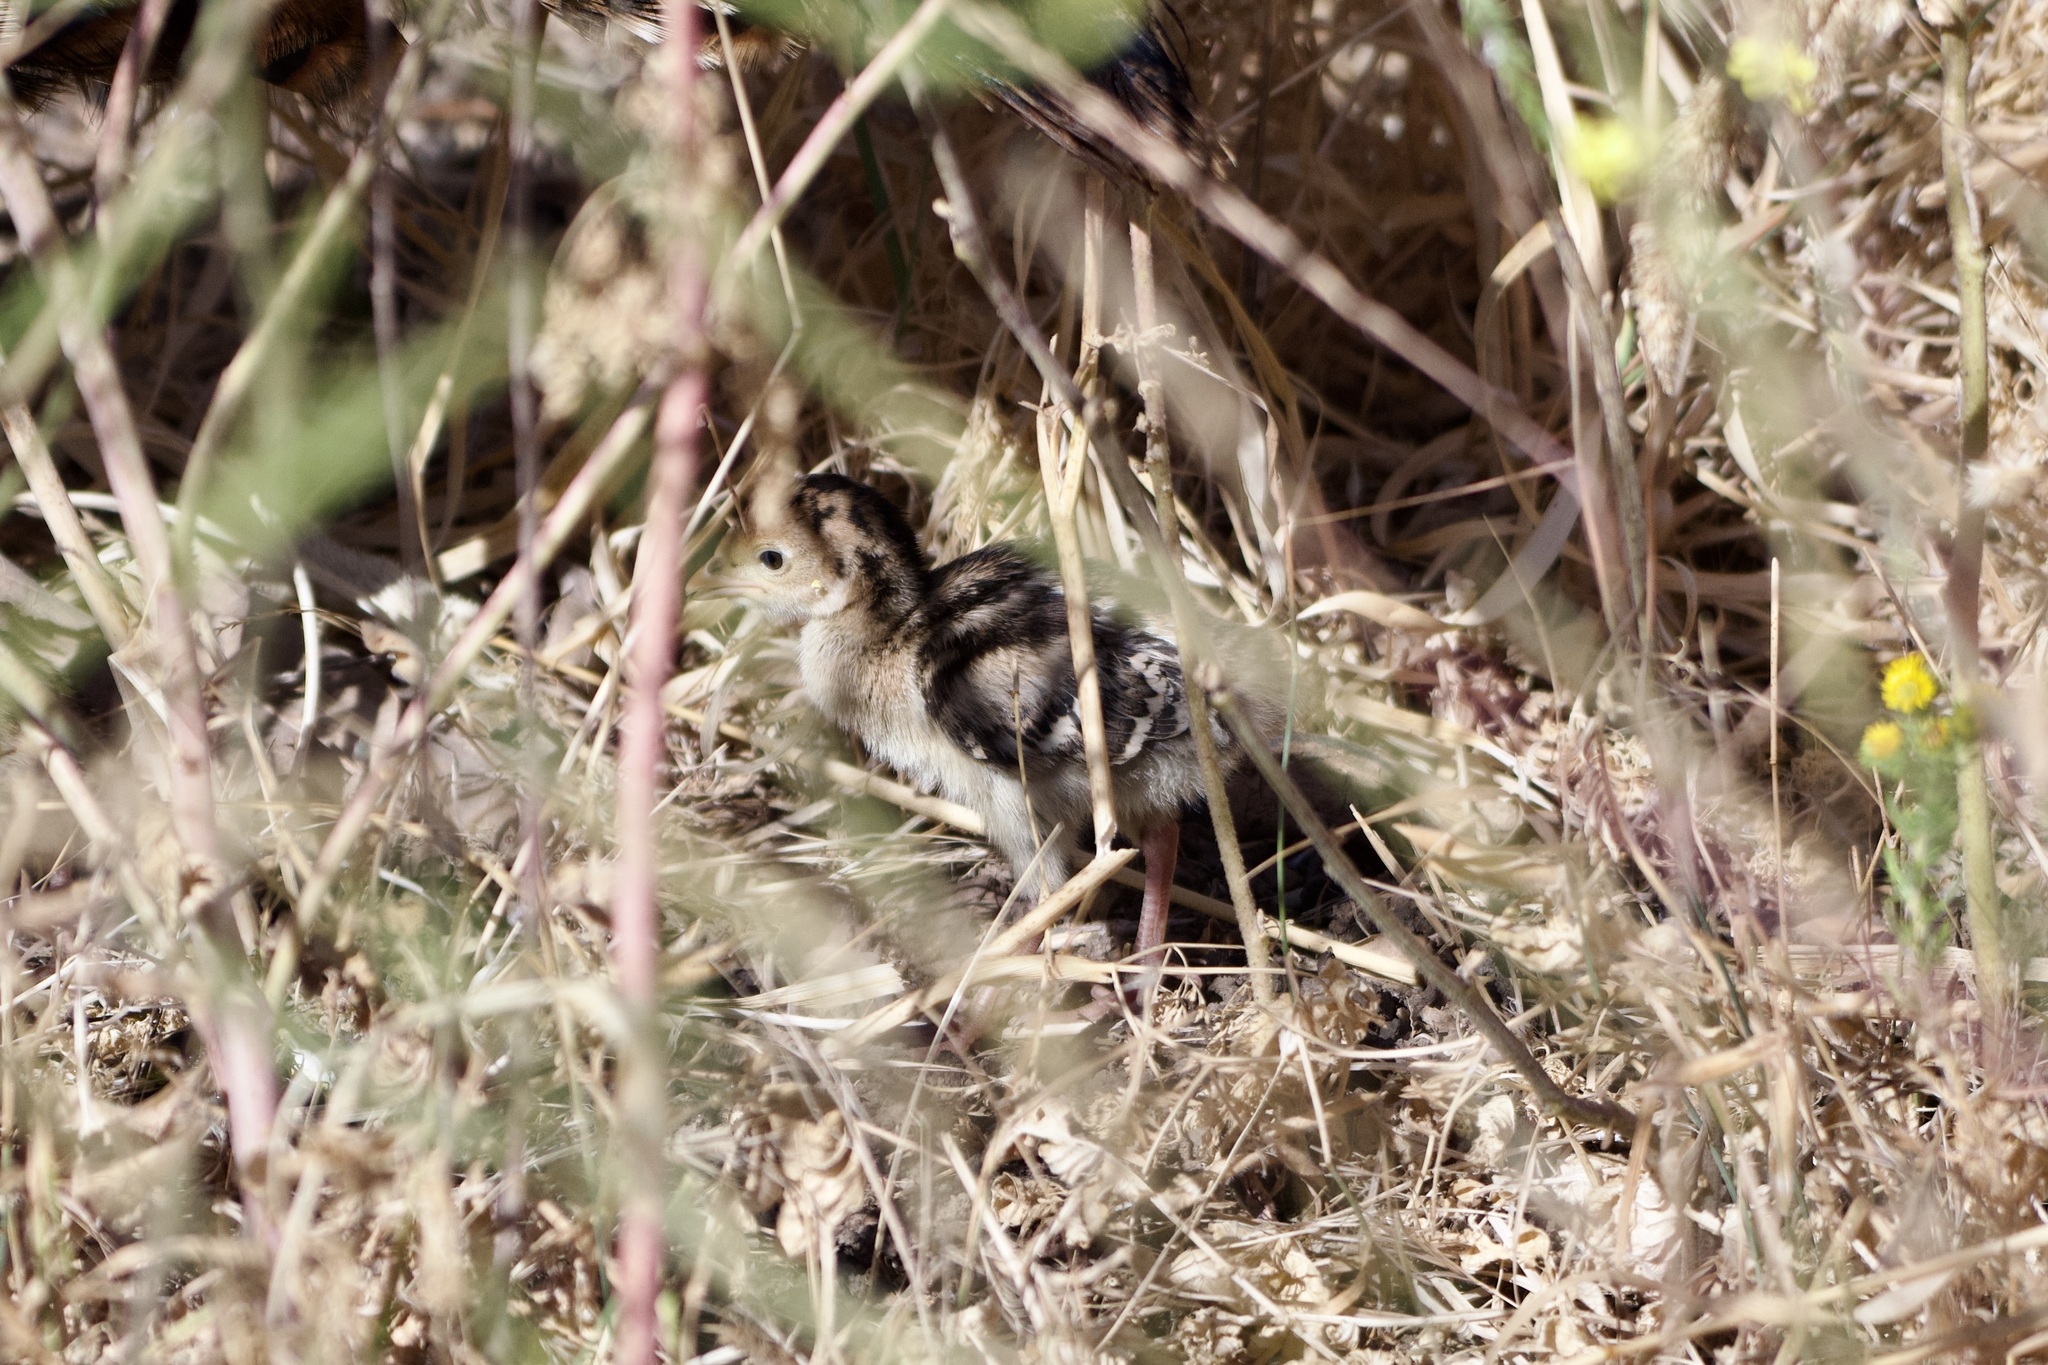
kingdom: Animalia
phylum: Chordata
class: Aves
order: Galliformes
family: Phasianidae
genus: Meleagris
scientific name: Meleagris gallopavo
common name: Wild turkey
